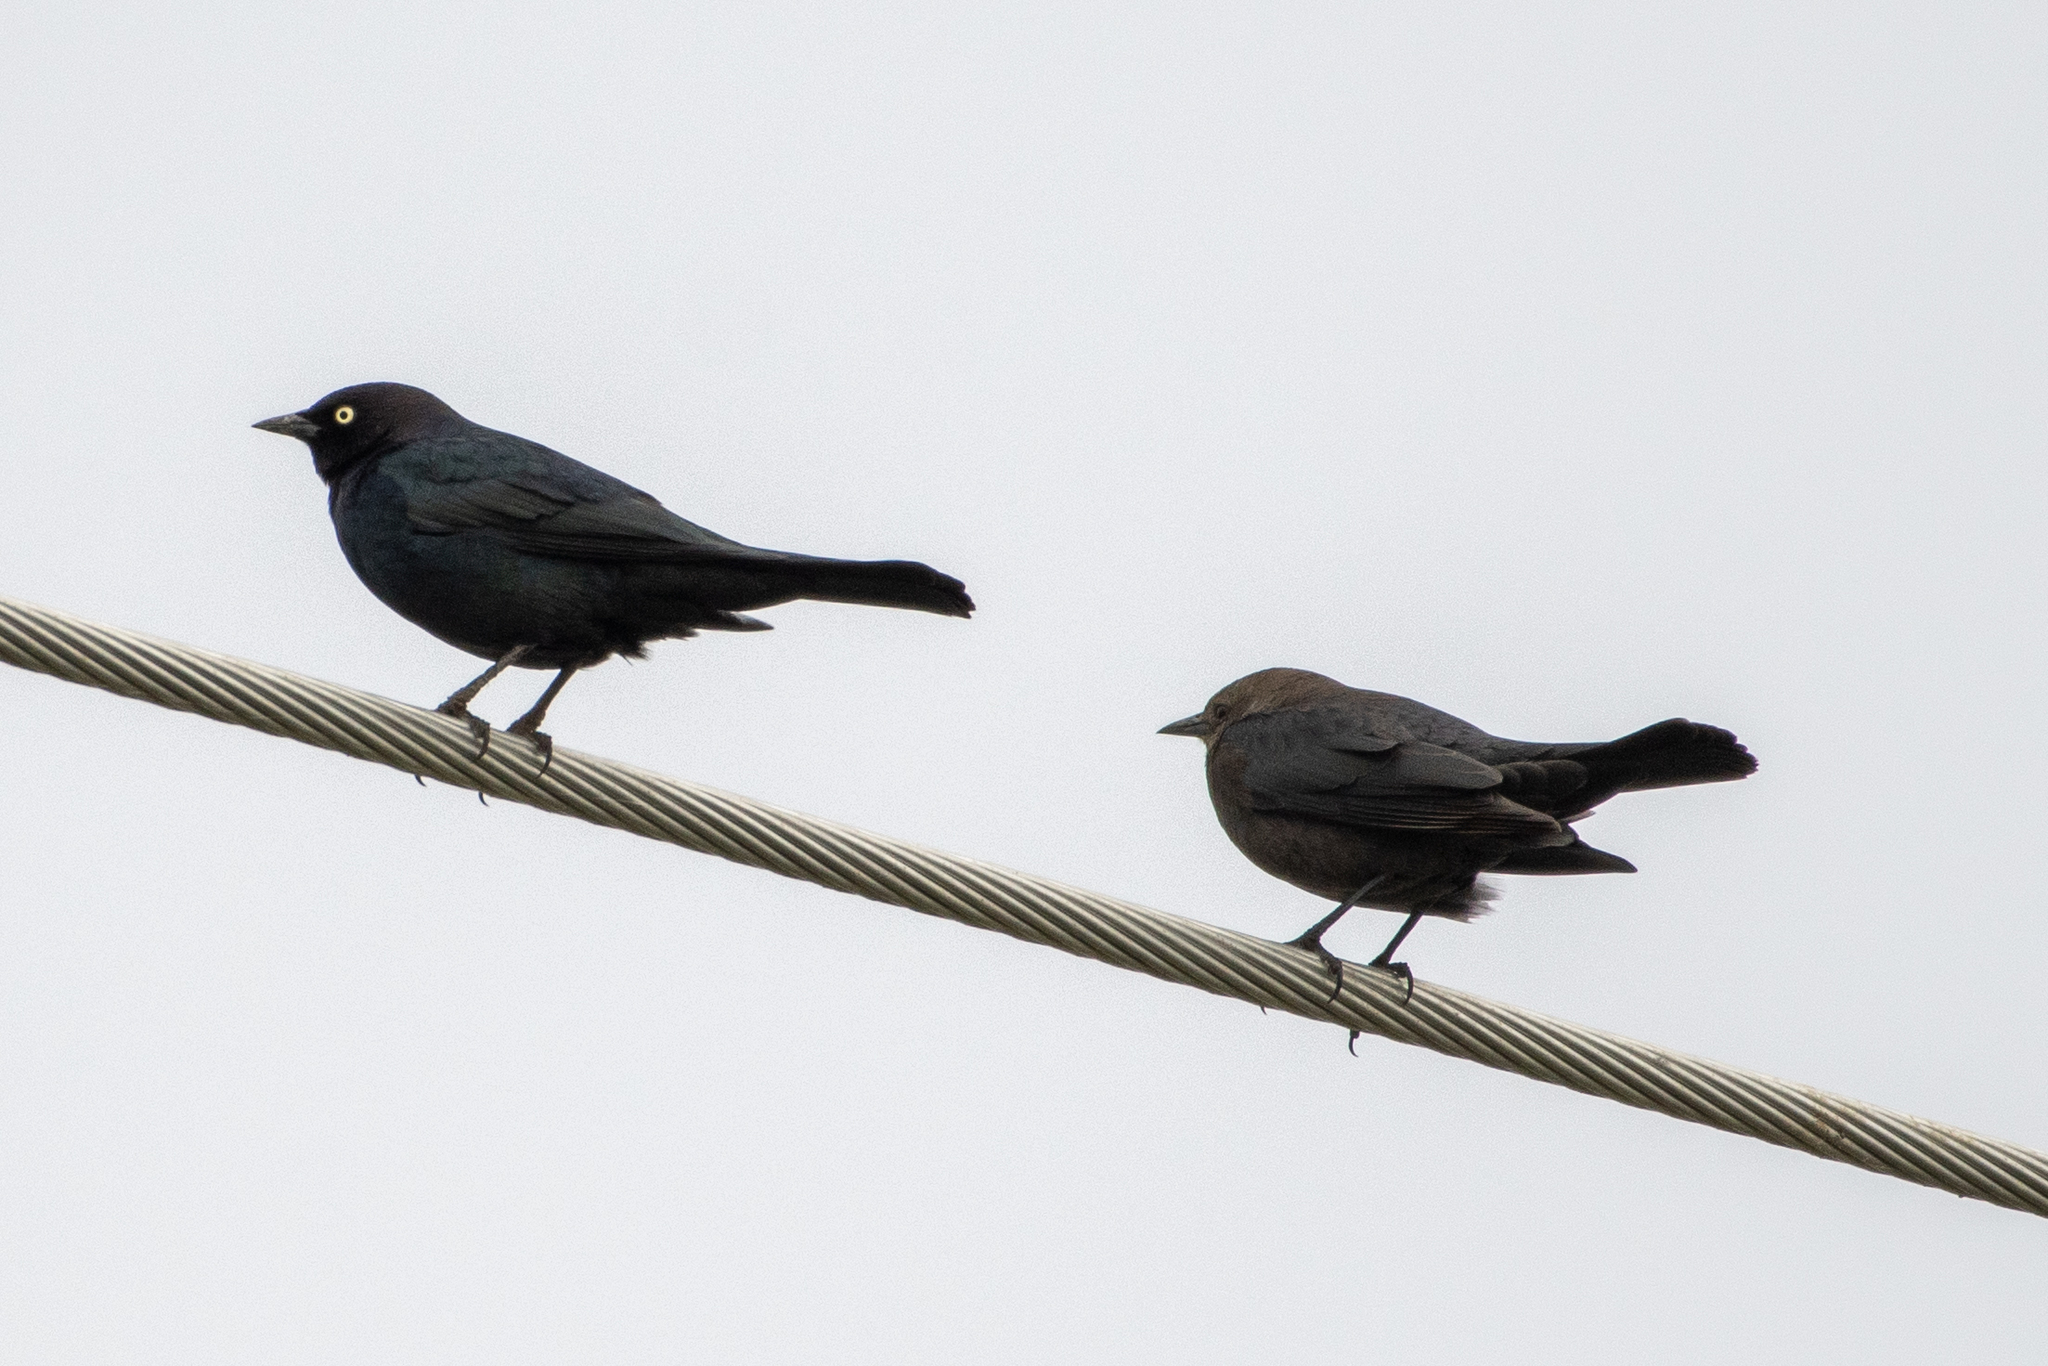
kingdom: Animalia
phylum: Chordata
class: Aves
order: Passeriformes
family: Icteridae
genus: Euphagus
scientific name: Euphagus cyanocephalus
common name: Brewer's blackbird
